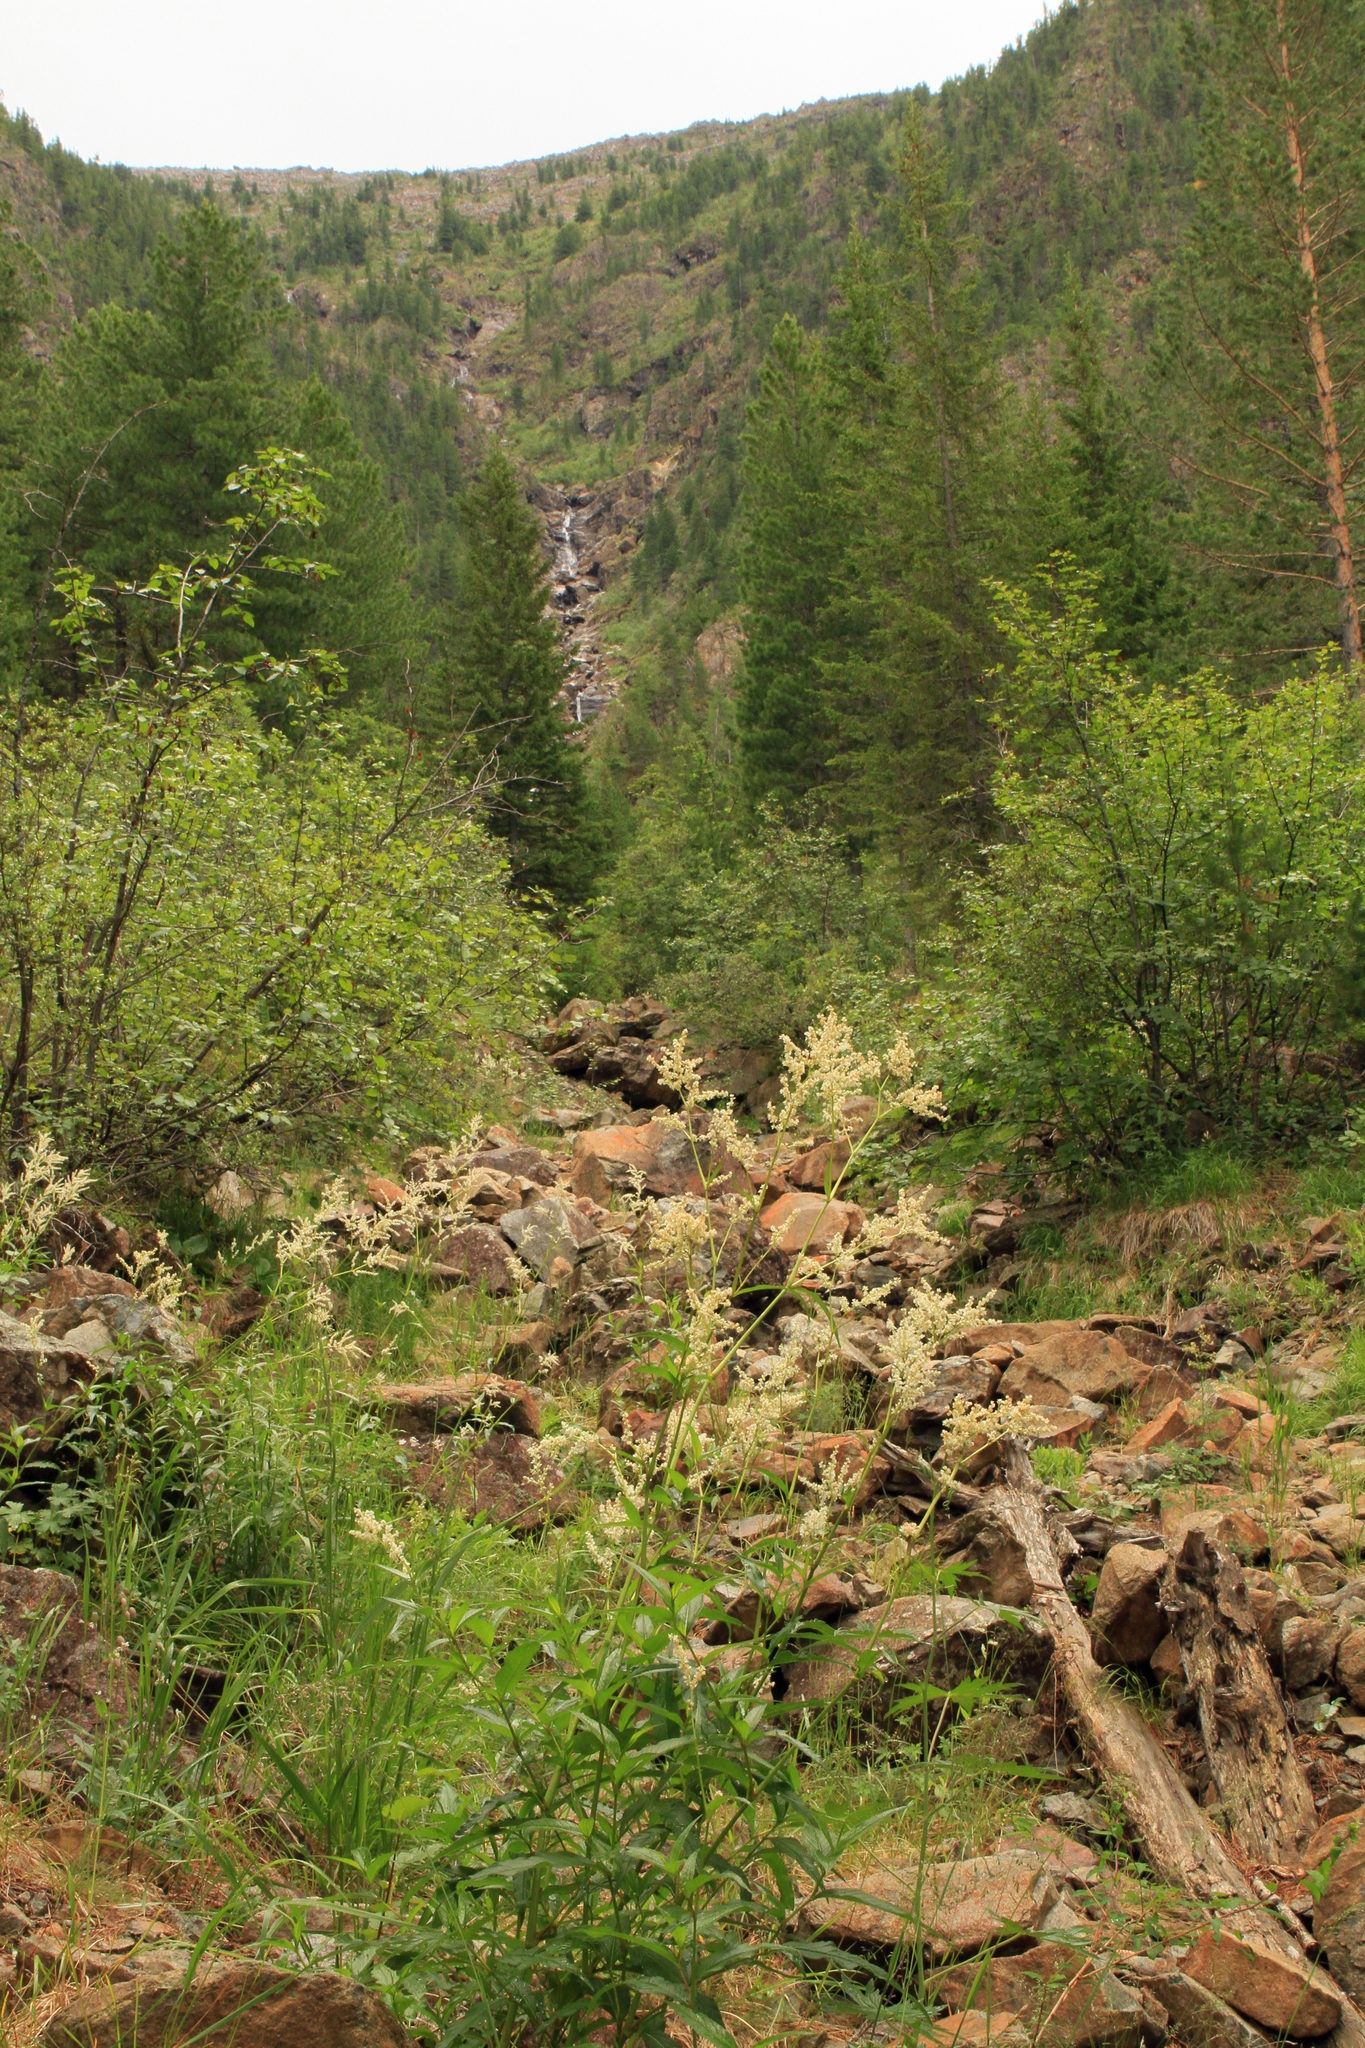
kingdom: Plantae
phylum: Tracheophyta
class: Magnoliopsida
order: Caryophyllales
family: Polygonaceae
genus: Koenigia
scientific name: Koenigia alpina
